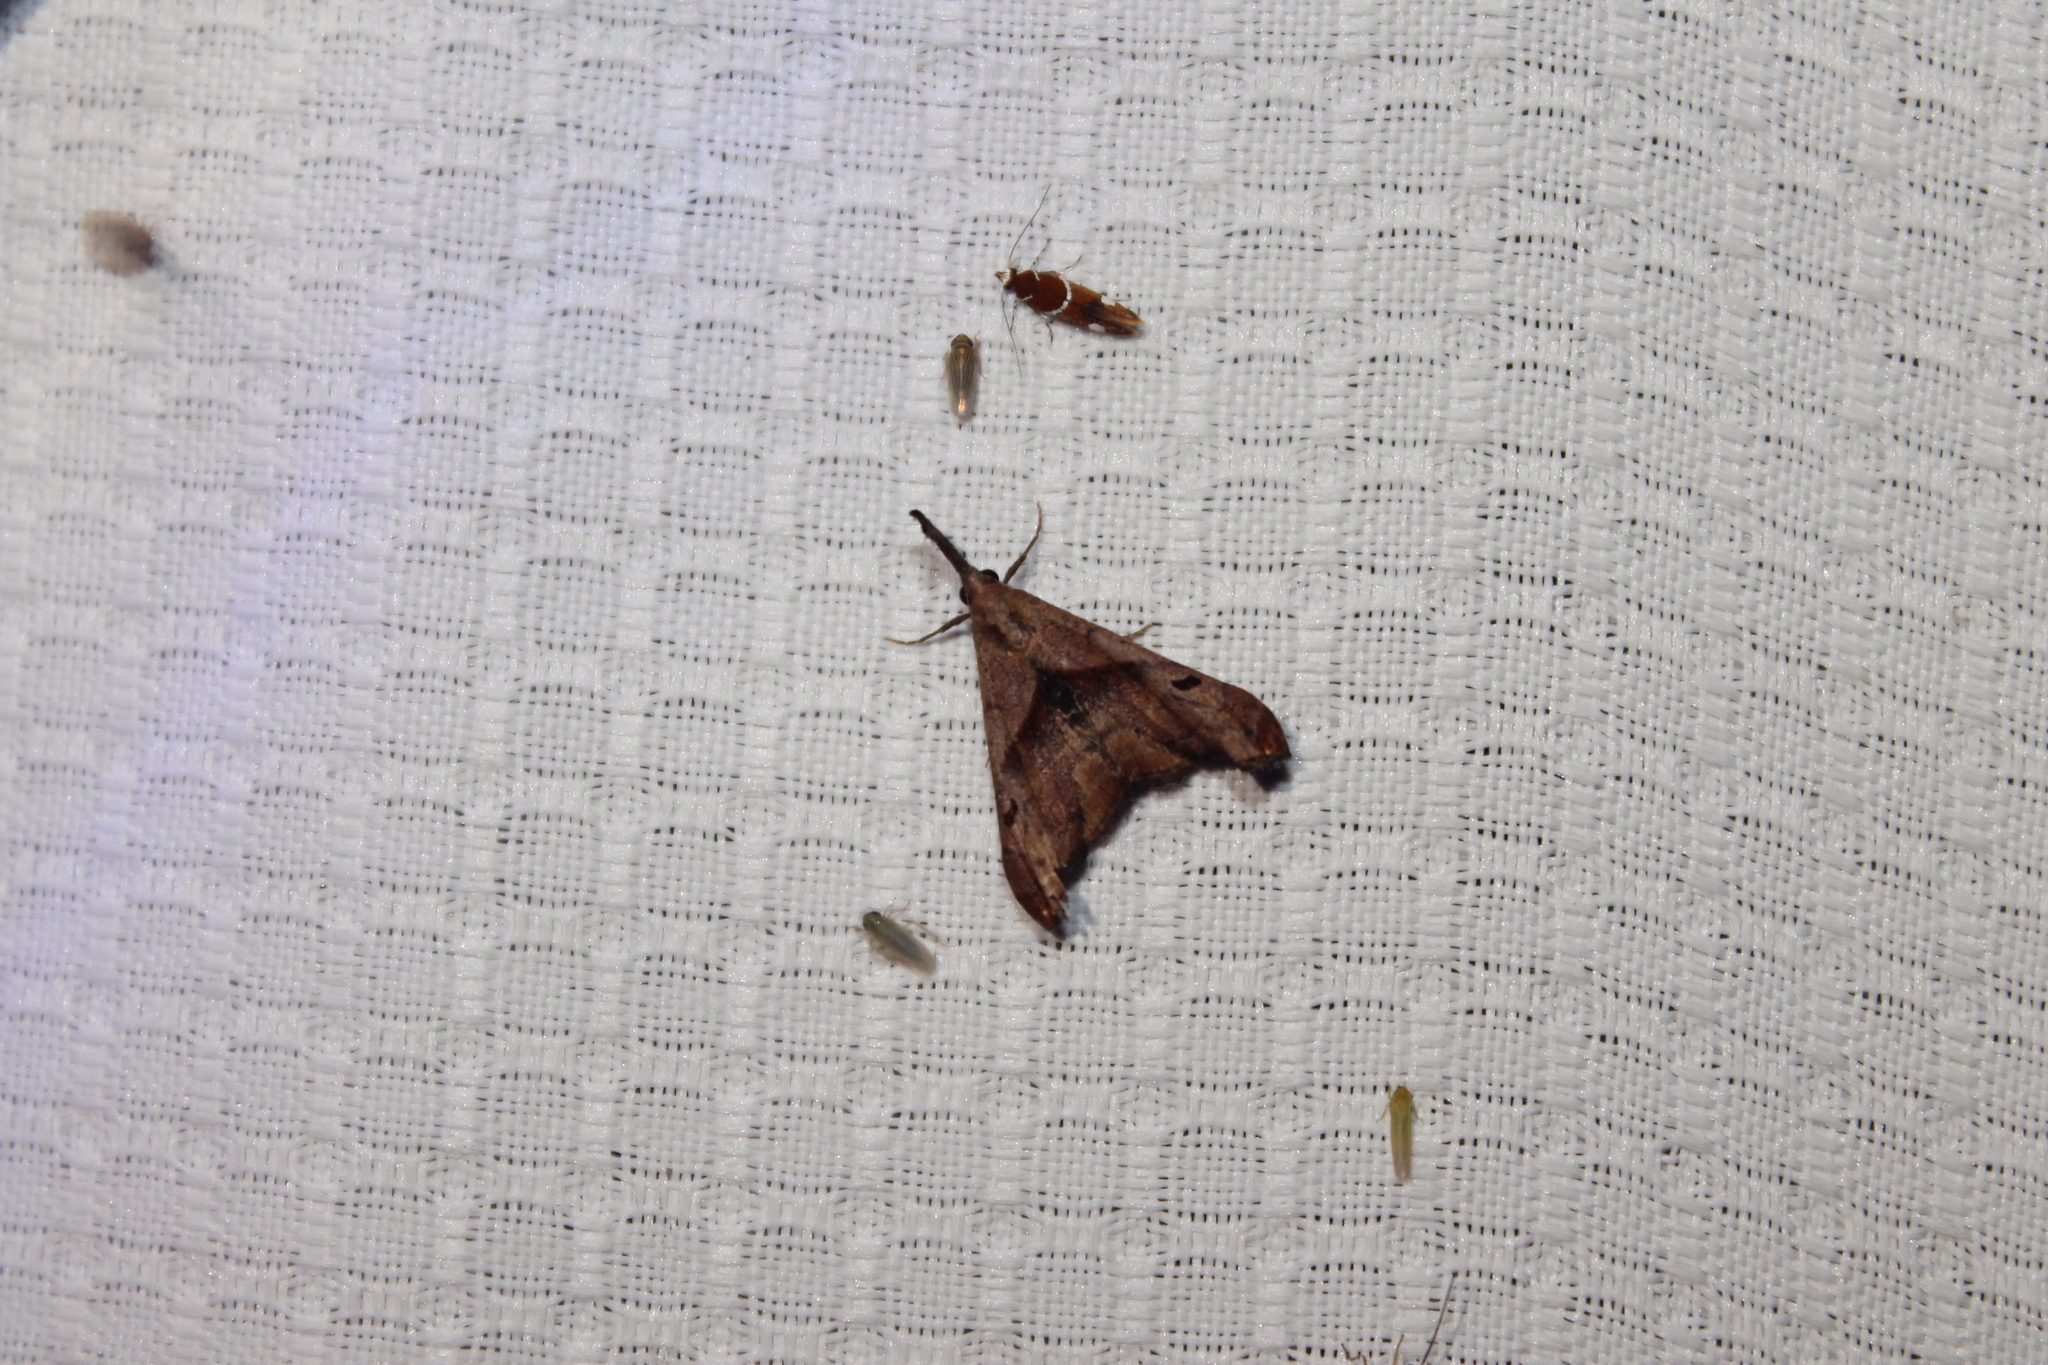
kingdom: Animalia
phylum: Arthropoda
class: Insecta
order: Lepidoptera
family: Erebidae
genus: Palthis
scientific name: Palthis angulalis
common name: Dark-spotted palthis moth
